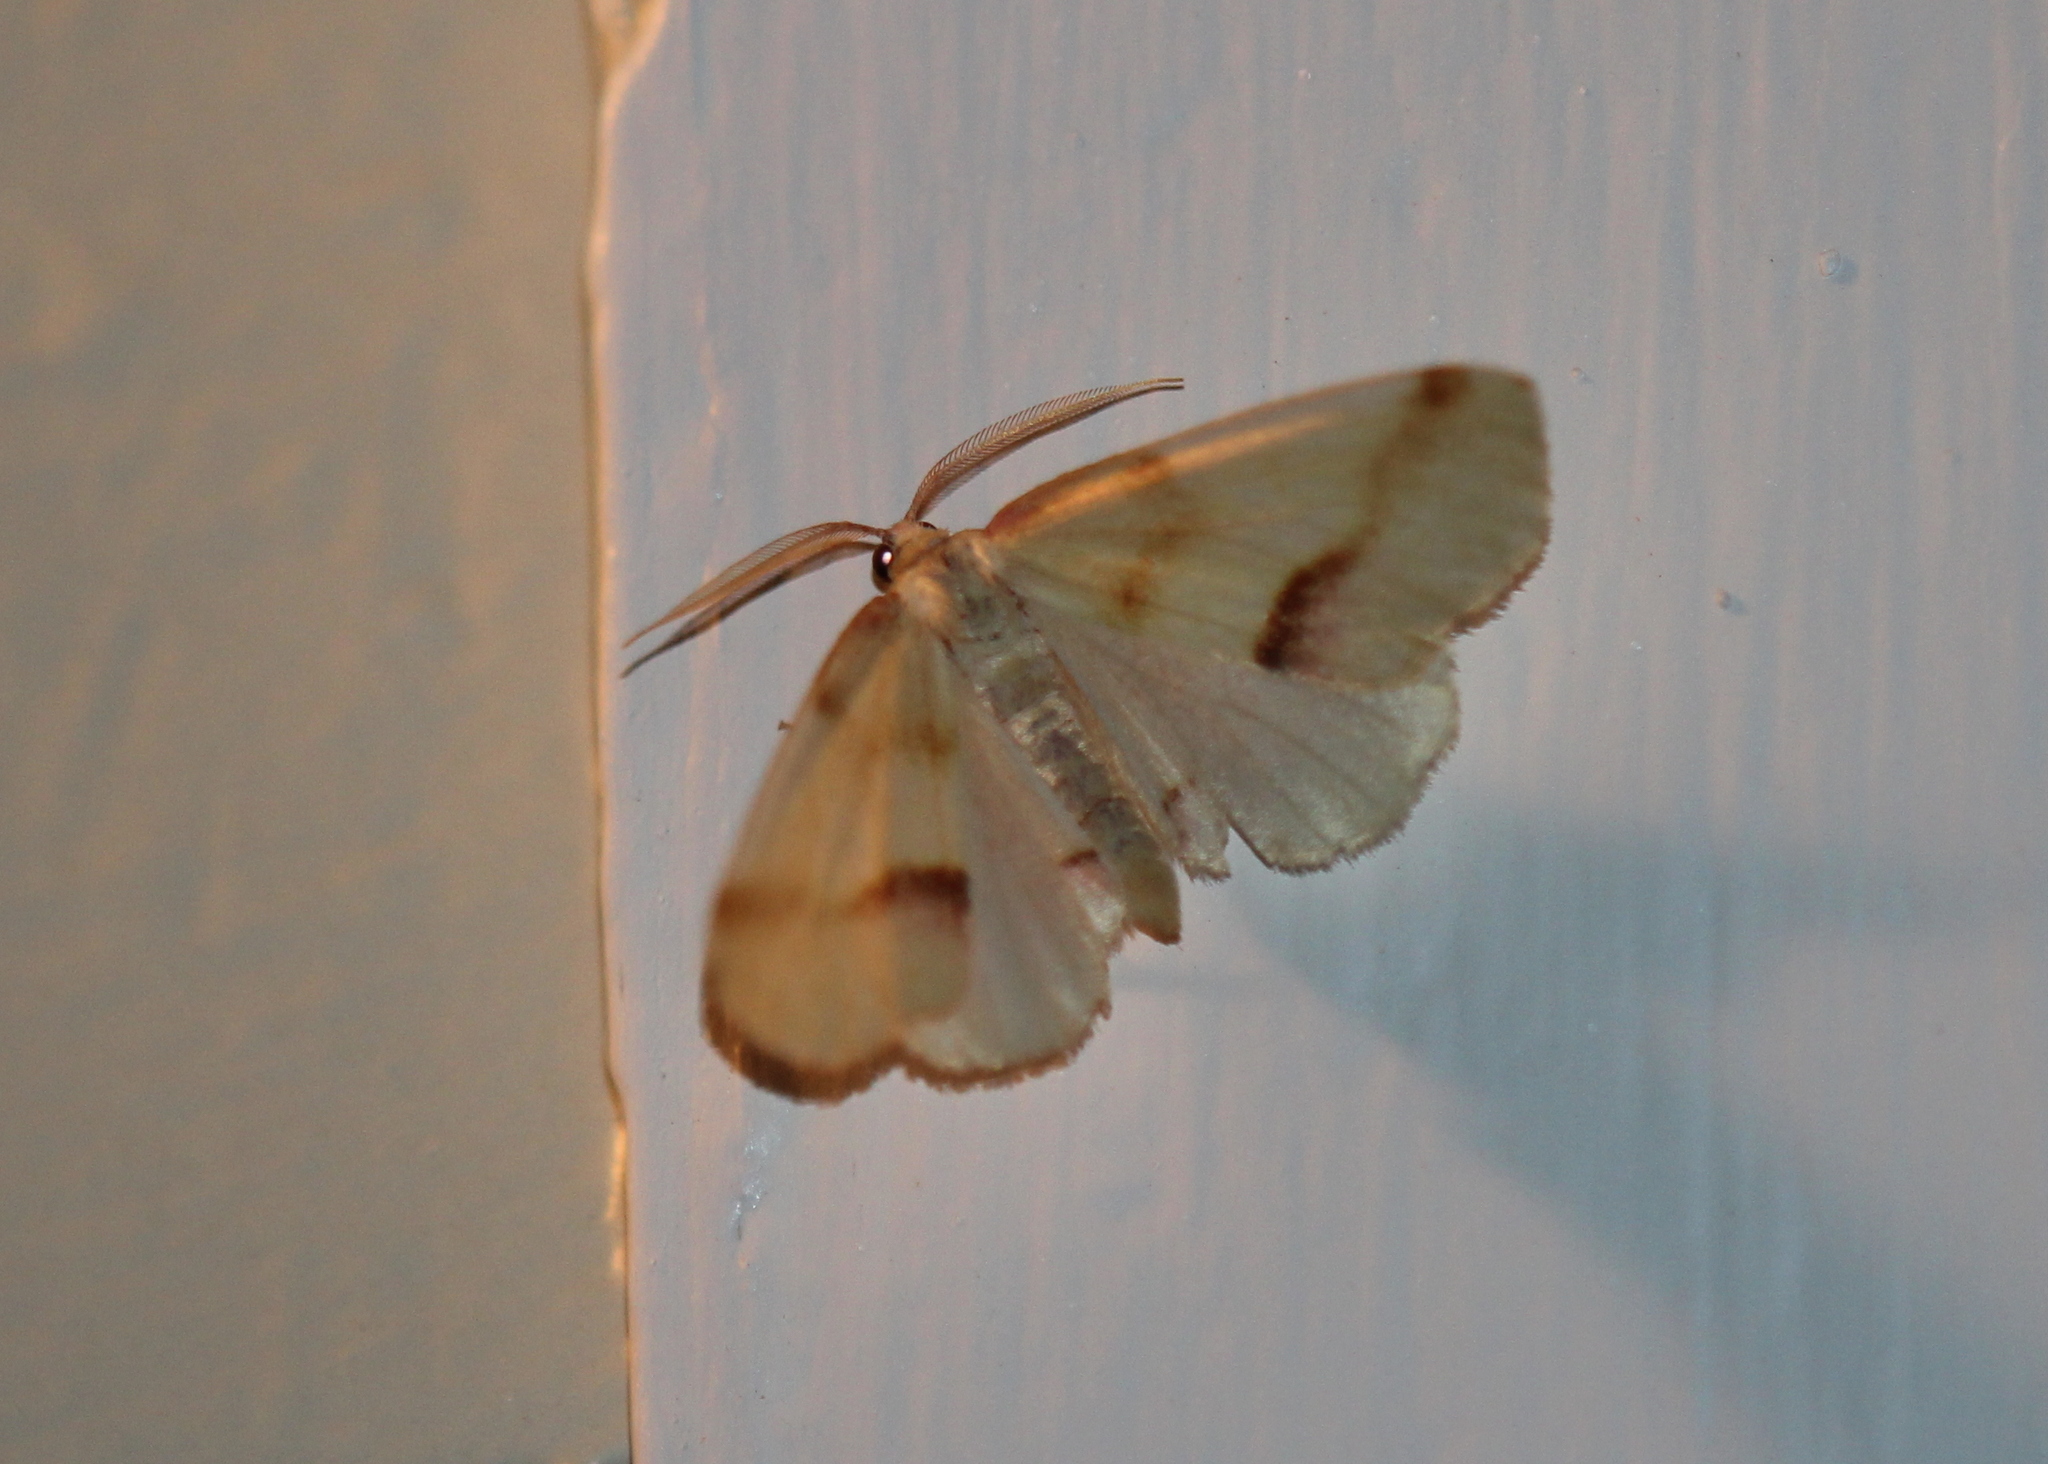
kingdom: Animalia
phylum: Arthropoda
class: Insecta
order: Lepidoptera
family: Geometridae
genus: Plagodis
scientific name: Plagodis serinaria
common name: Lemon plagodis
